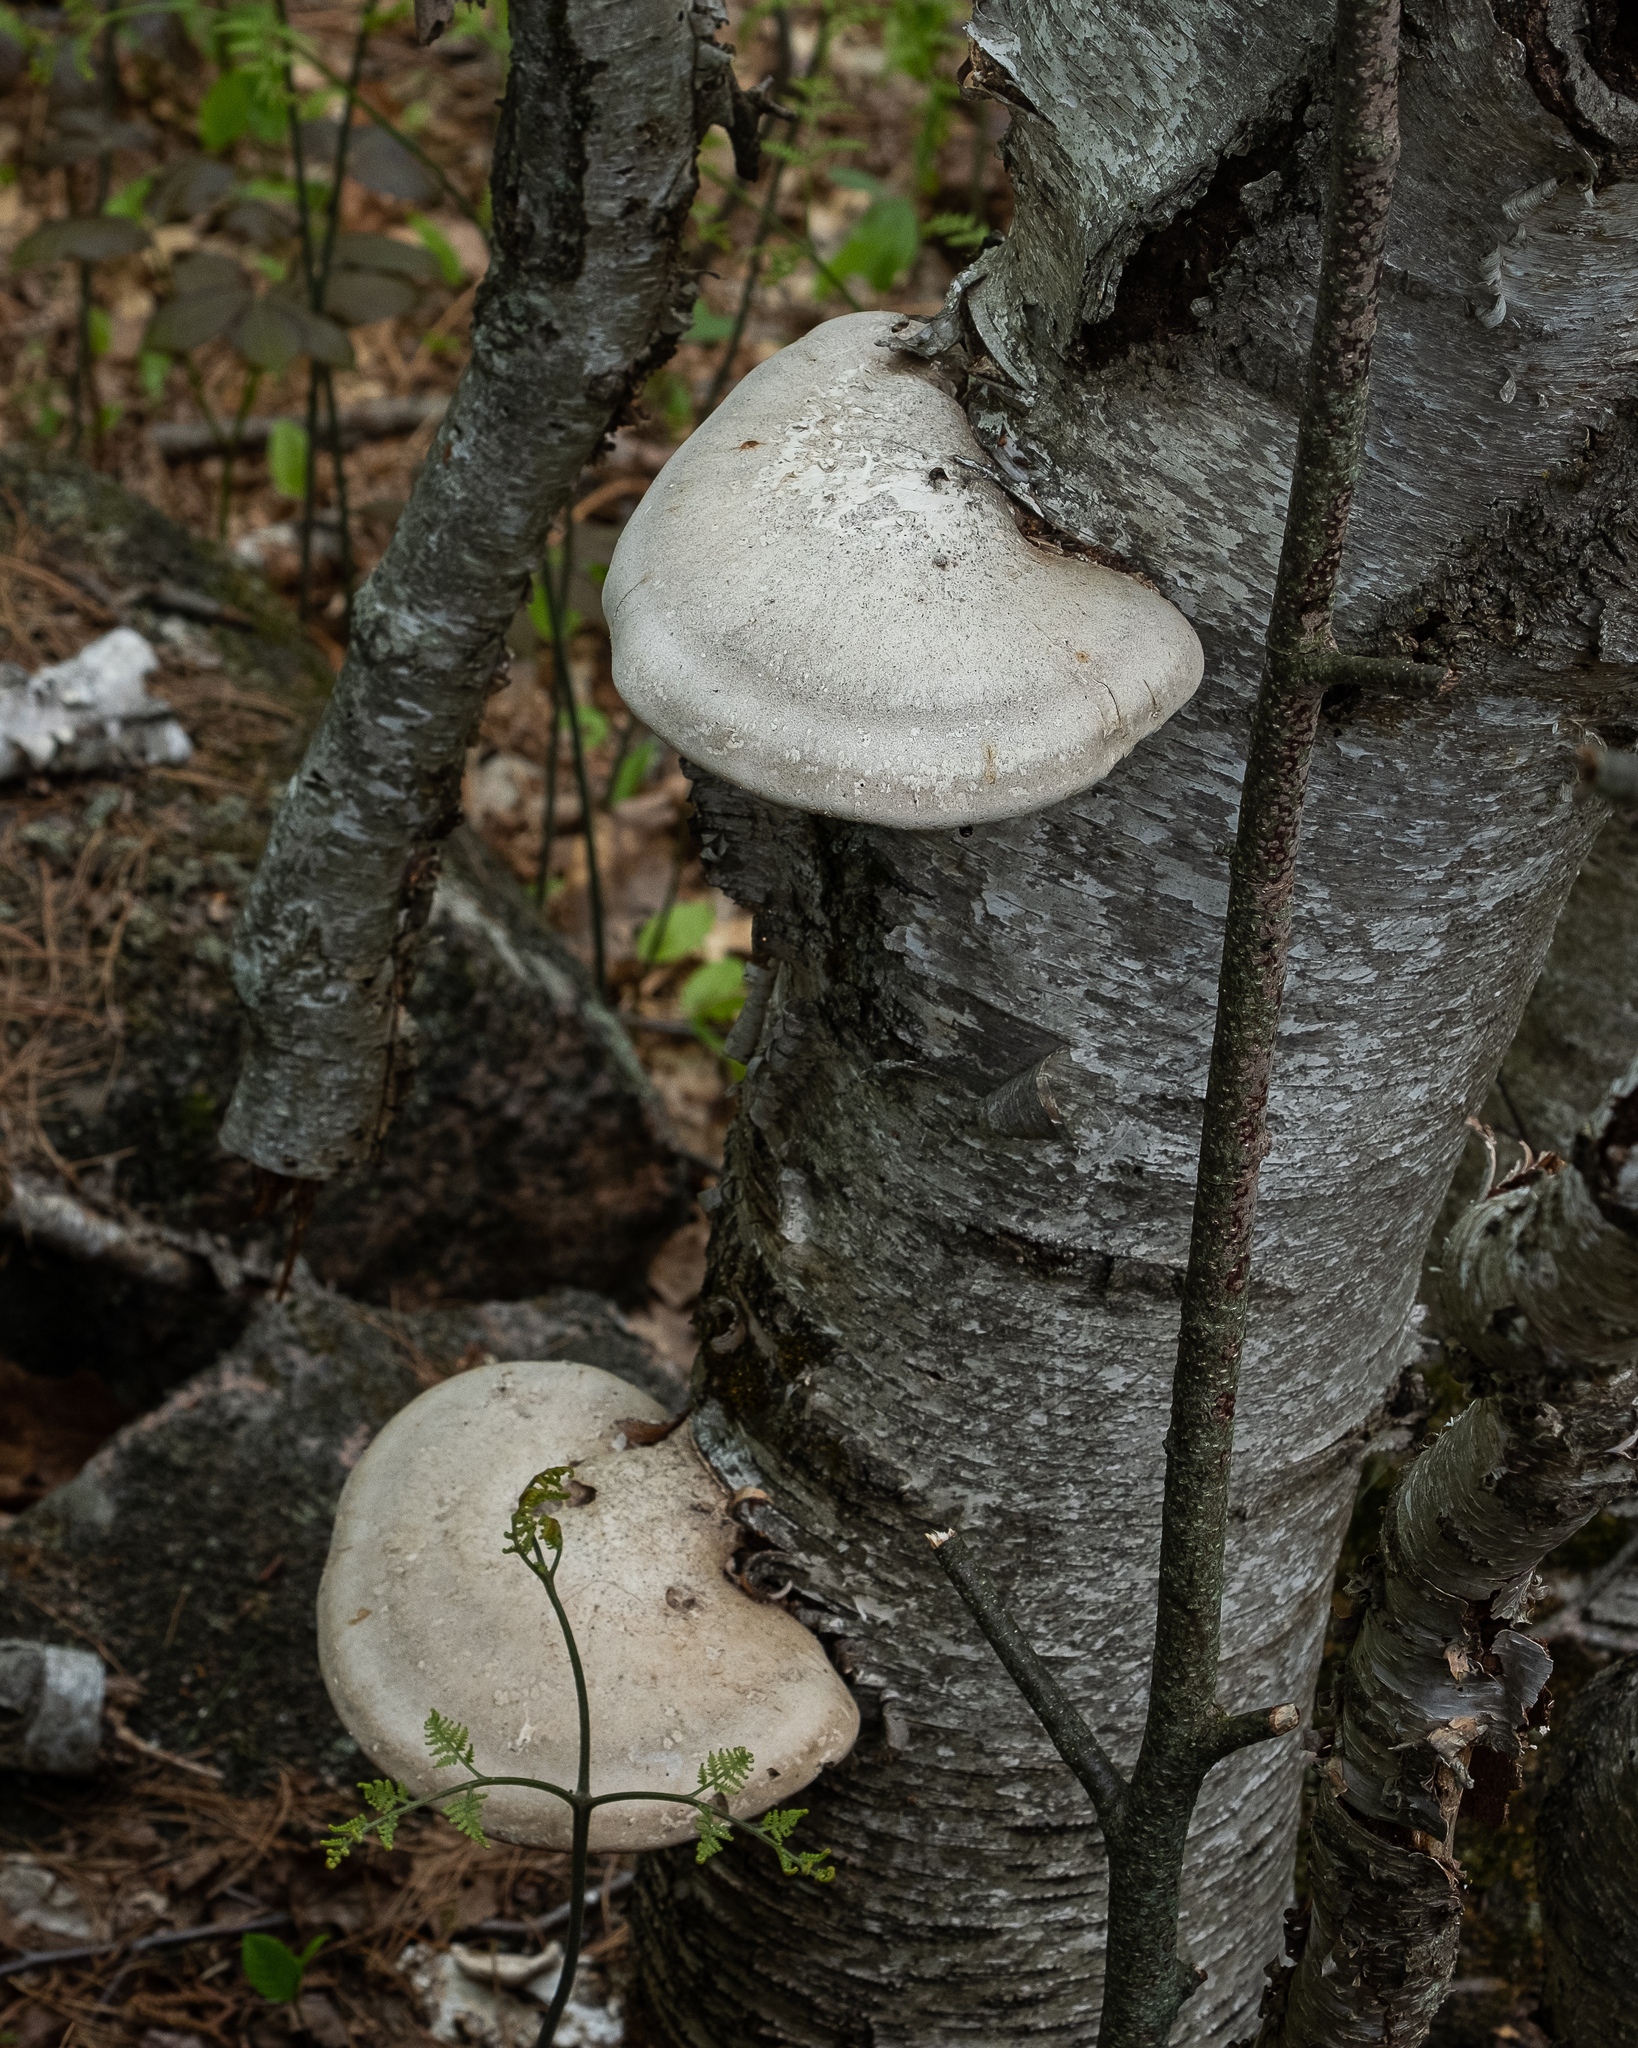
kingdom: Fungi
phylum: Basidiomycota
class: Agaricomycetes
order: Polyporales
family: Fomitopsidaceae
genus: Fomitopsis
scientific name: Fomitopsis betulina
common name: Birch polypore
